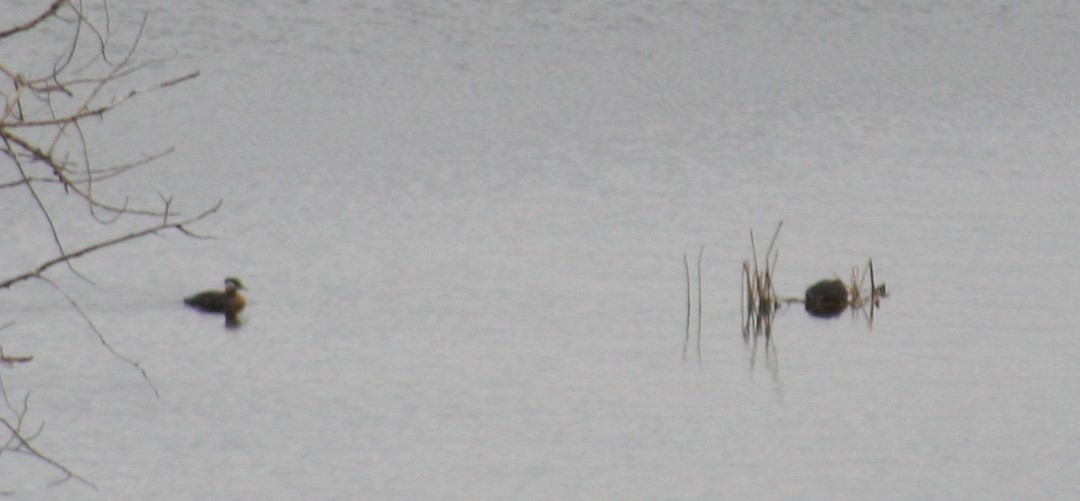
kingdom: Animalia
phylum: Chordata
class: Aves
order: Podicipediformes
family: Podicipedidae
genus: Podiceps
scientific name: Podiceps grisegena
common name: Red-necked grebe
